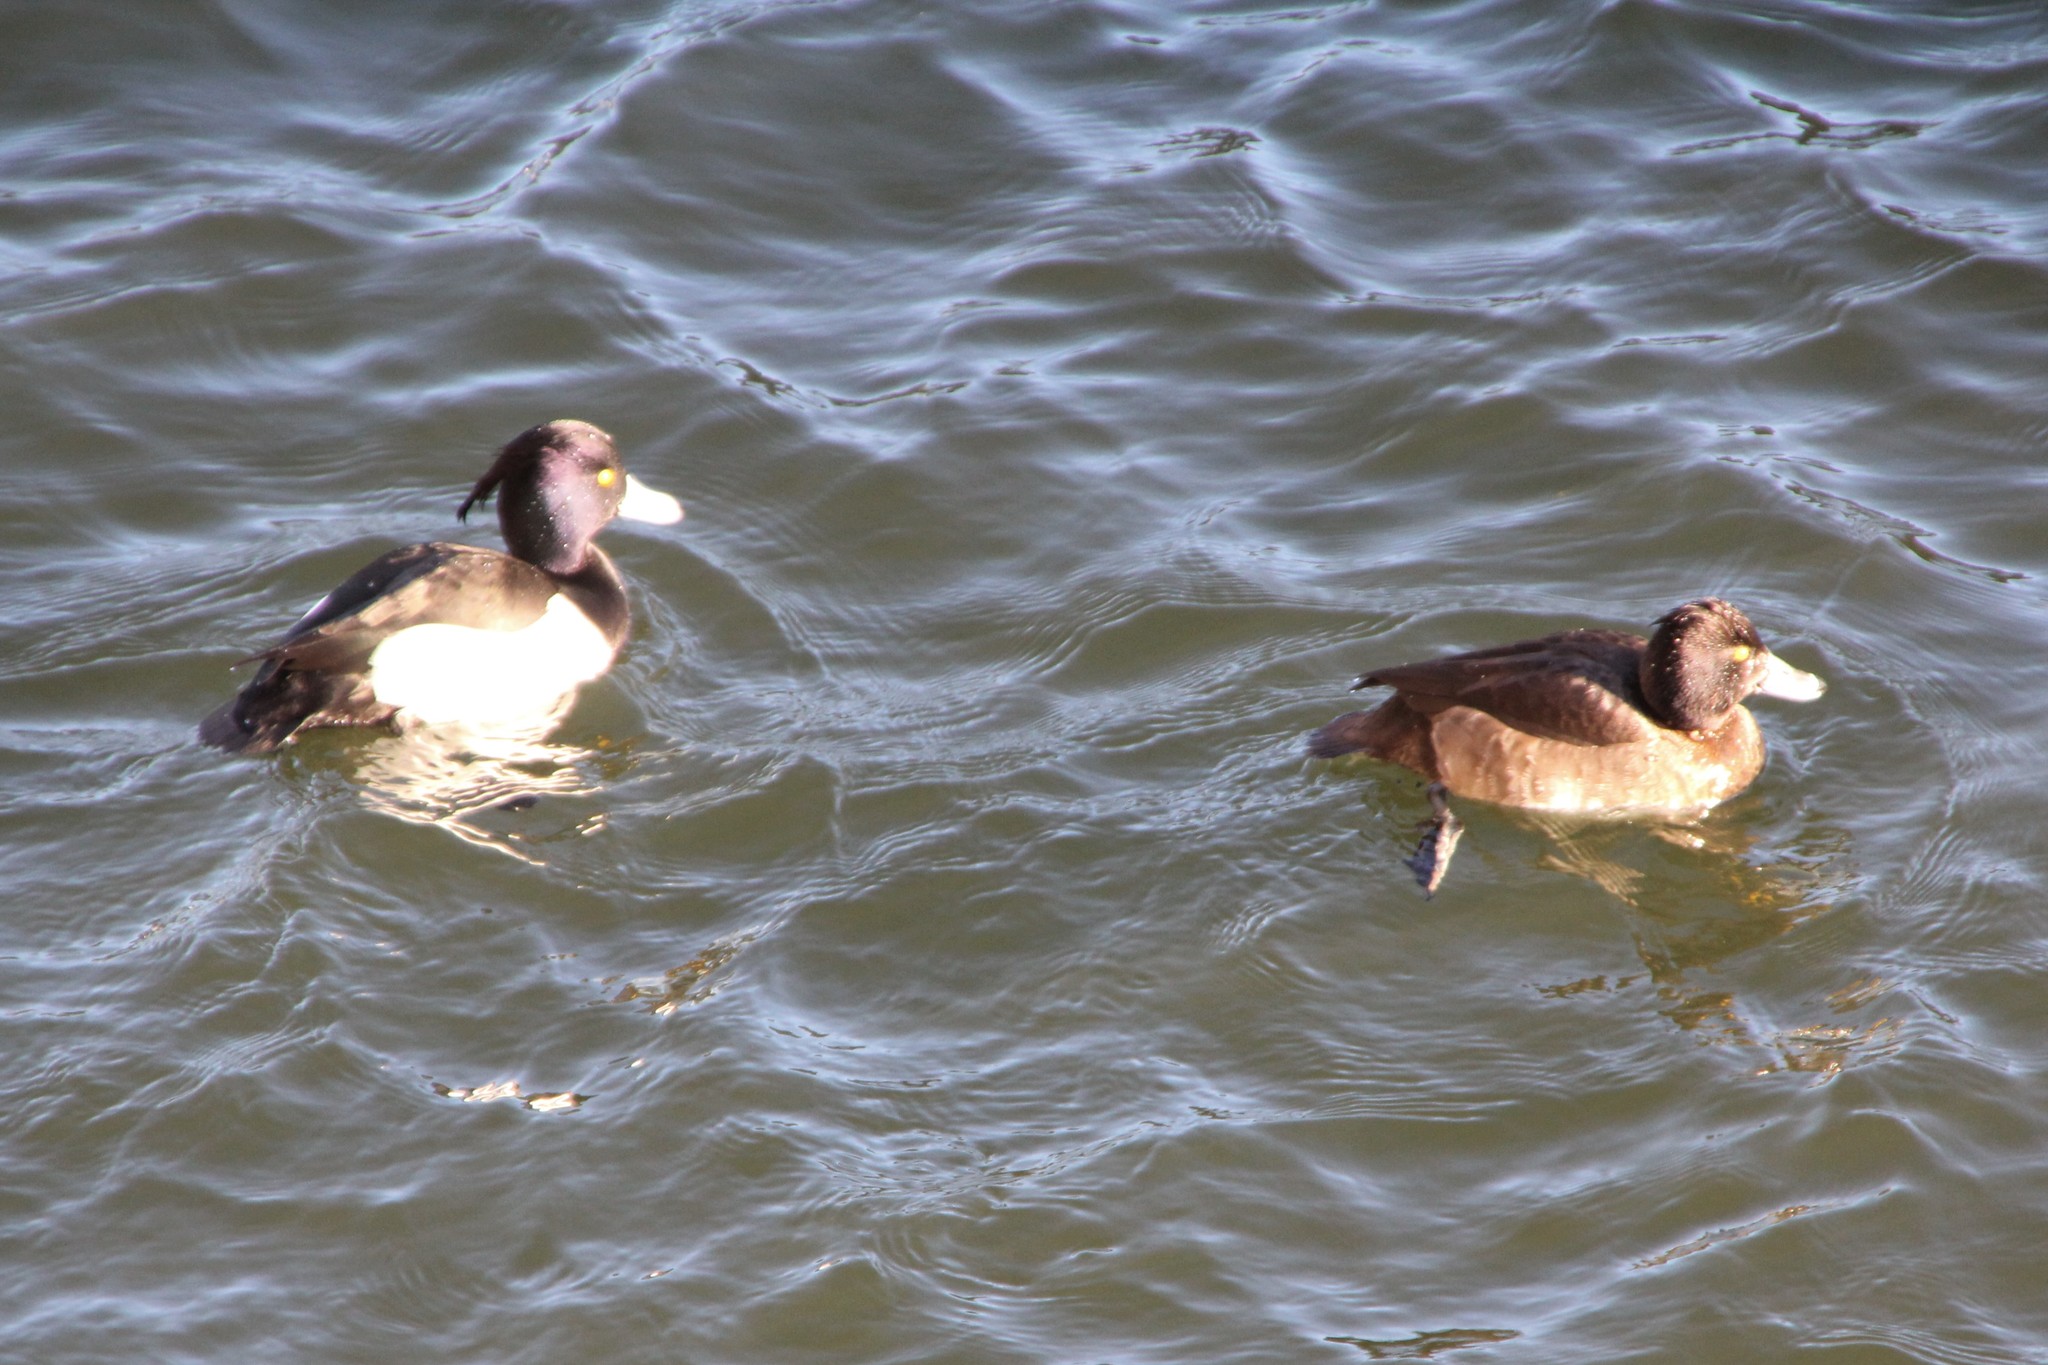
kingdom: Animalia
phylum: Chordata
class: Aves
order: Anseriformes
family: Anatidae
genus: Aythya
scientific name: Aythya fuligula
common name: Tufted duck
